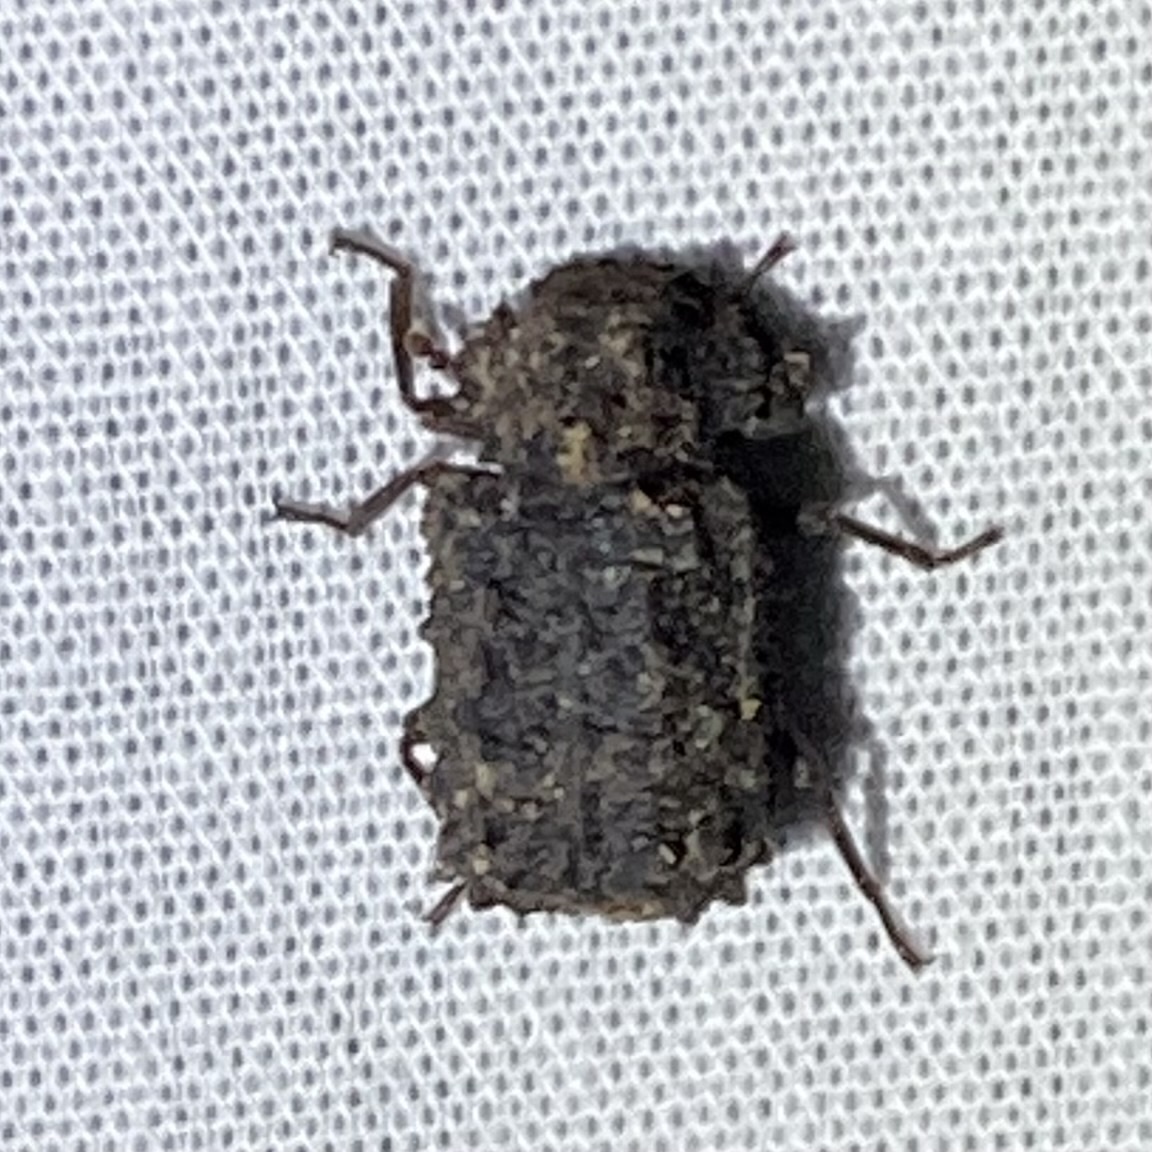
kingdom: Animalia
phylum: Arthropoda
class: Insecta
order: Coleoptera
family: Tenebrionidae
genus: Gnatocerus
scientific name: Gnatocerus cornutus
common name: Broad-horned flour beetle
